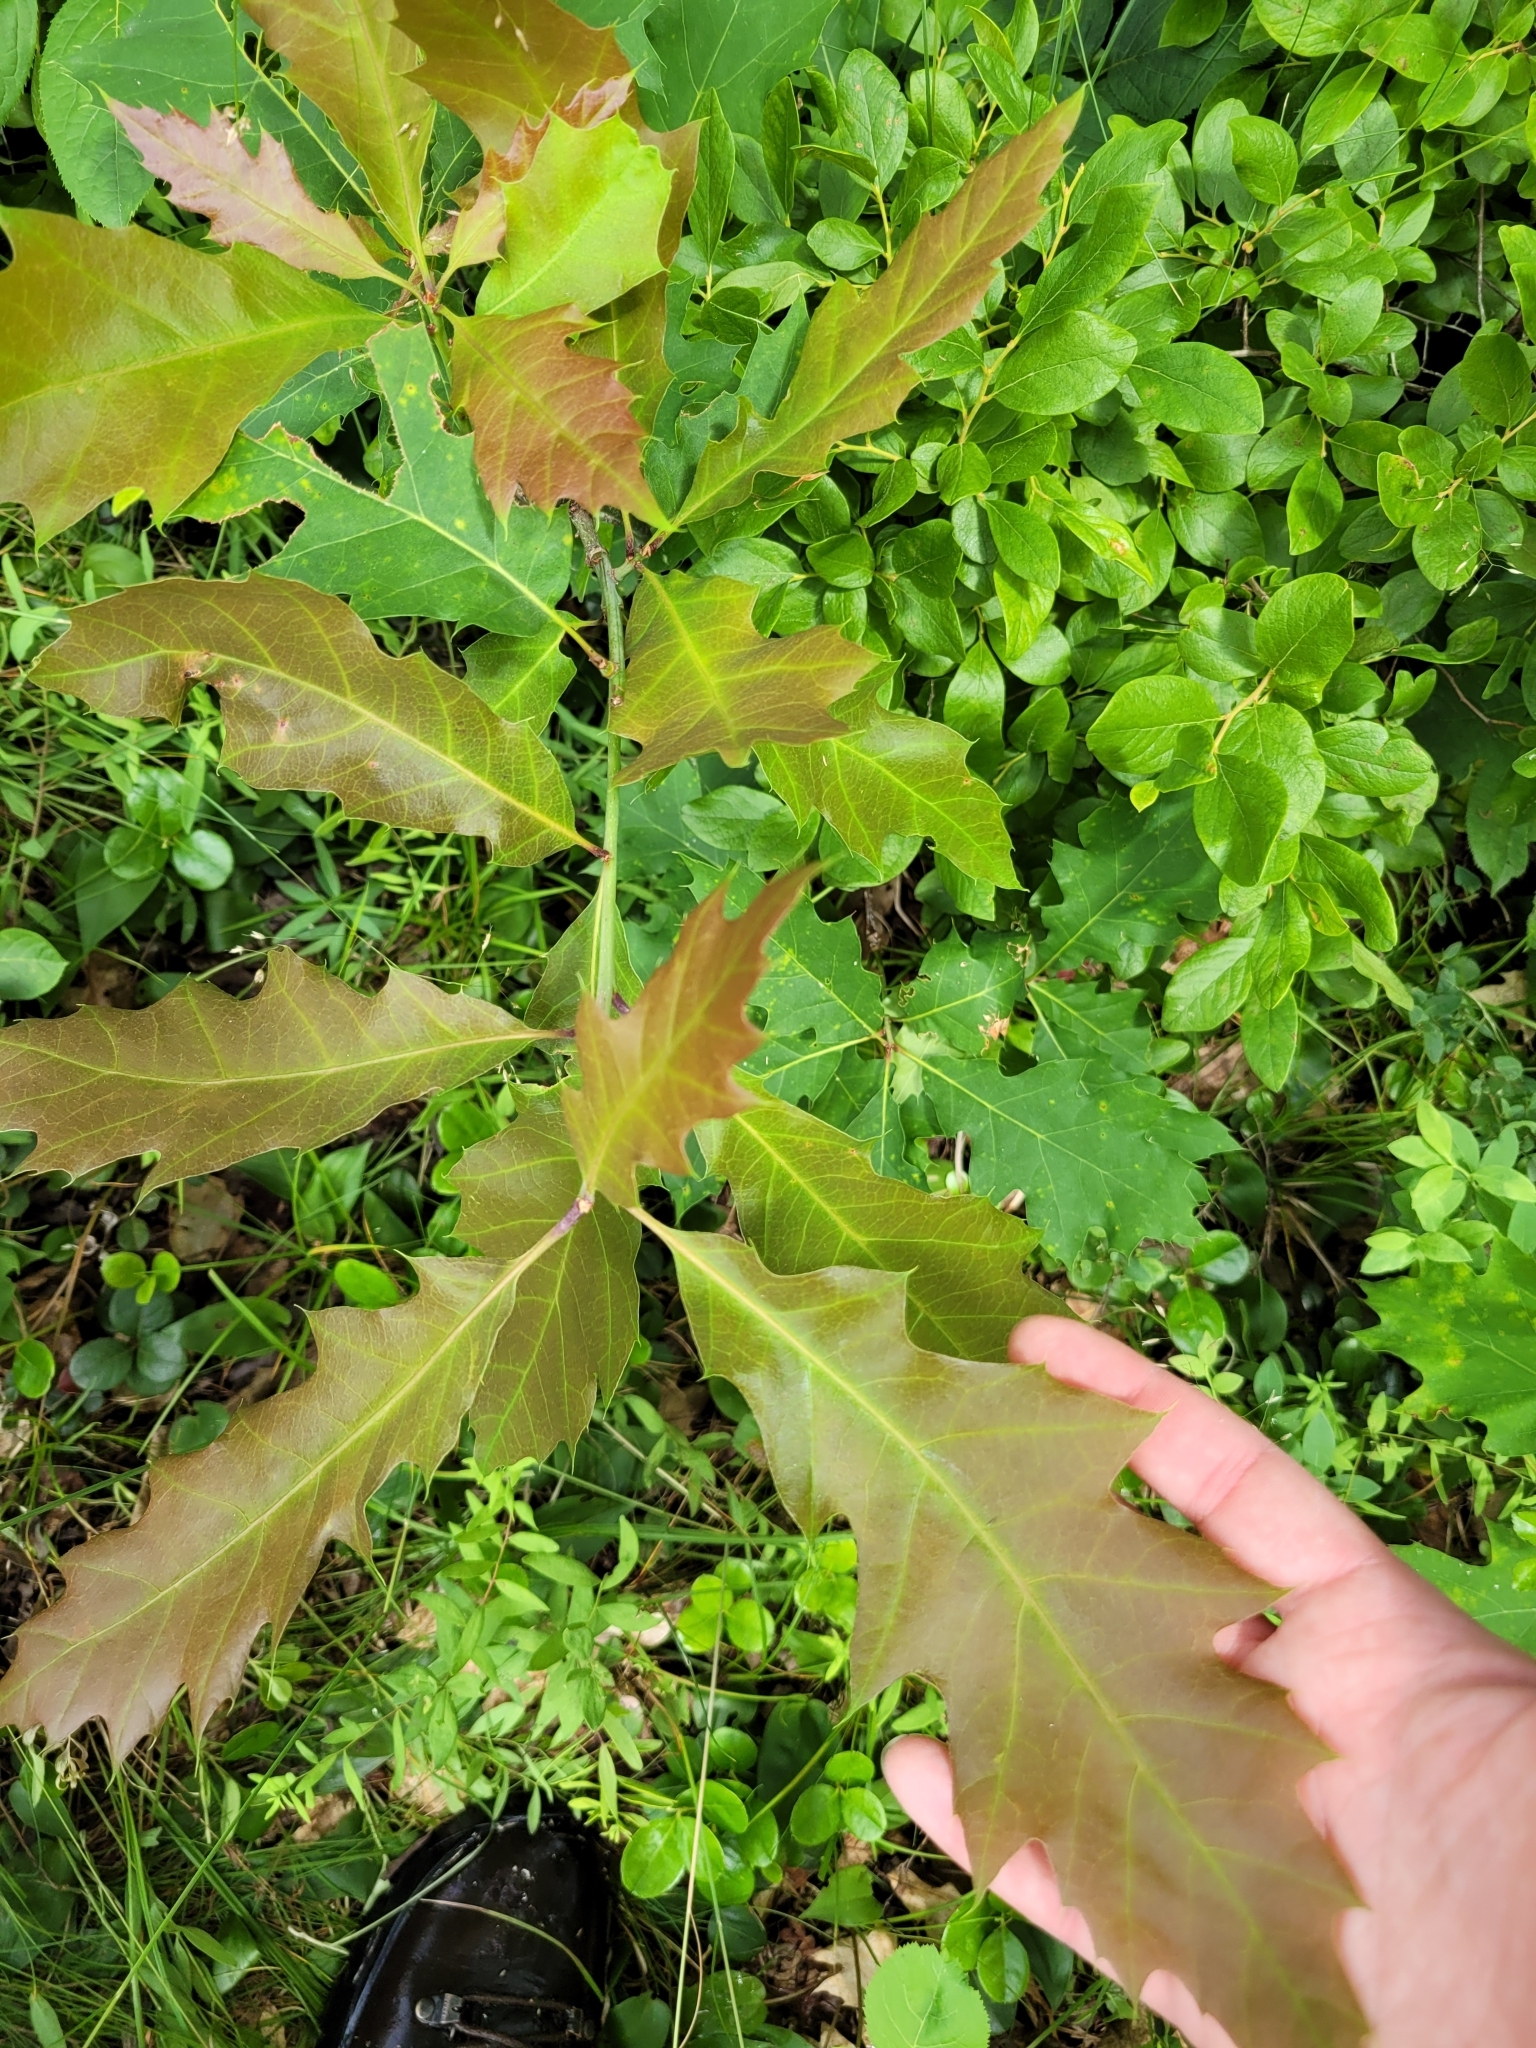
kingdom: Plantae
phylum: Tracheophyta
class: Magnoliopsida
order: Fagales
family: Fagaceae
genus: Quercus
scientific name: Quercus rubra
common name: Red oak
